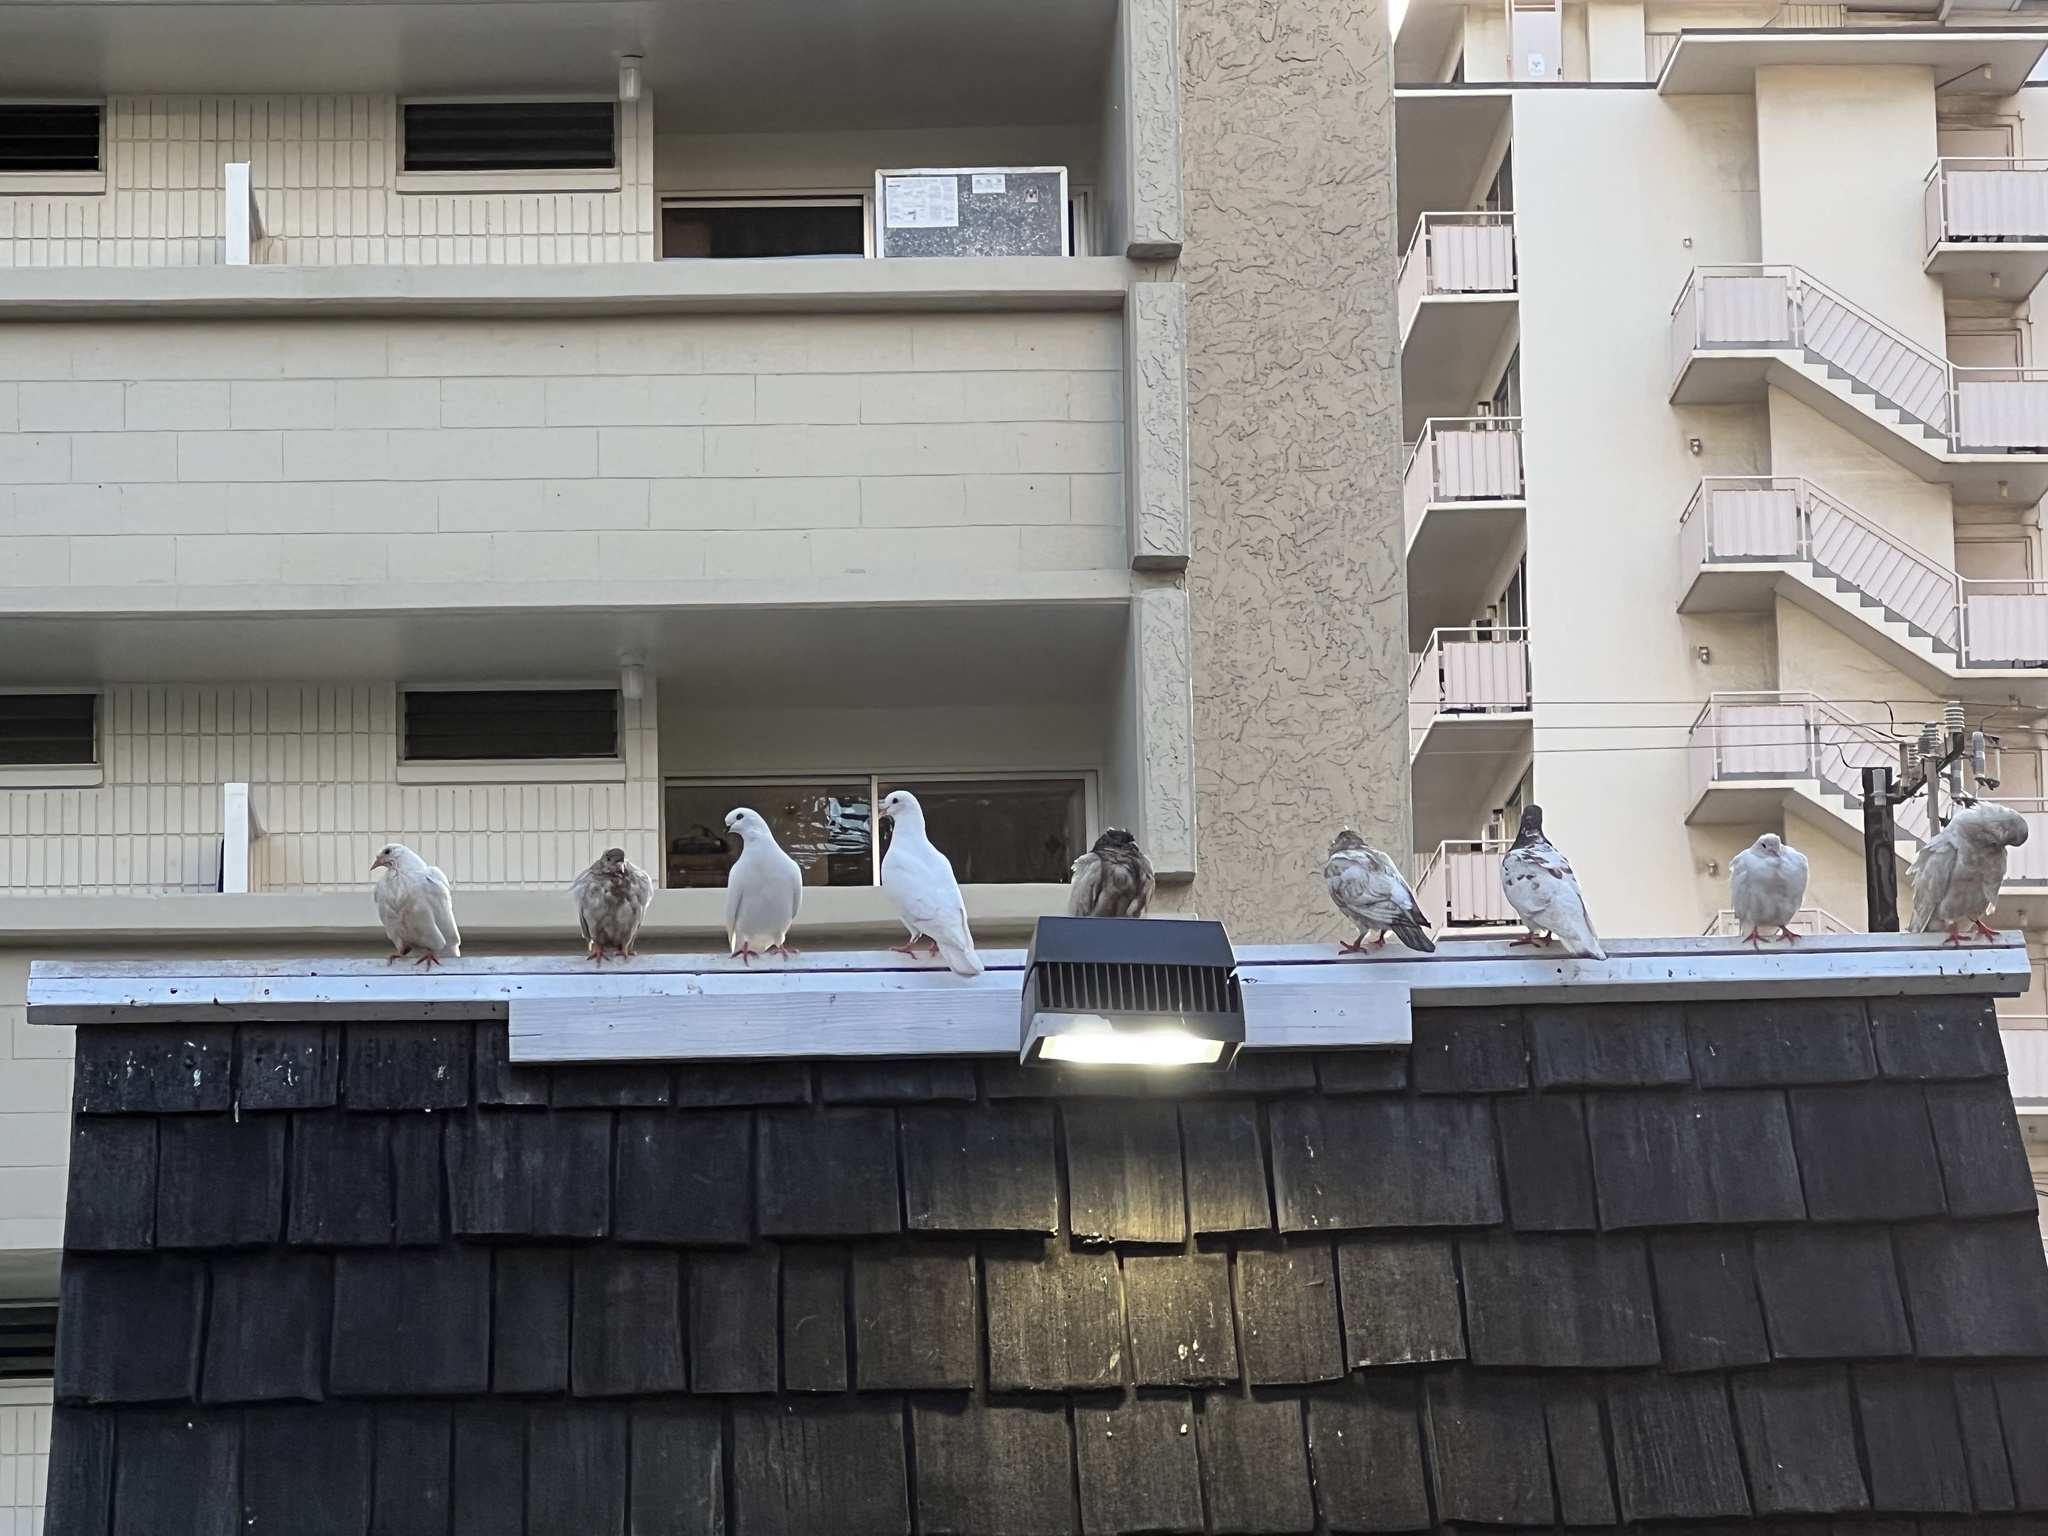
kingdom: Animalia
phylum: Chordata
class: Aves
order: Columbiformes
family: Columbidae
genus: Columba
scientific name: Columba livia
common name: Rock pigeon
